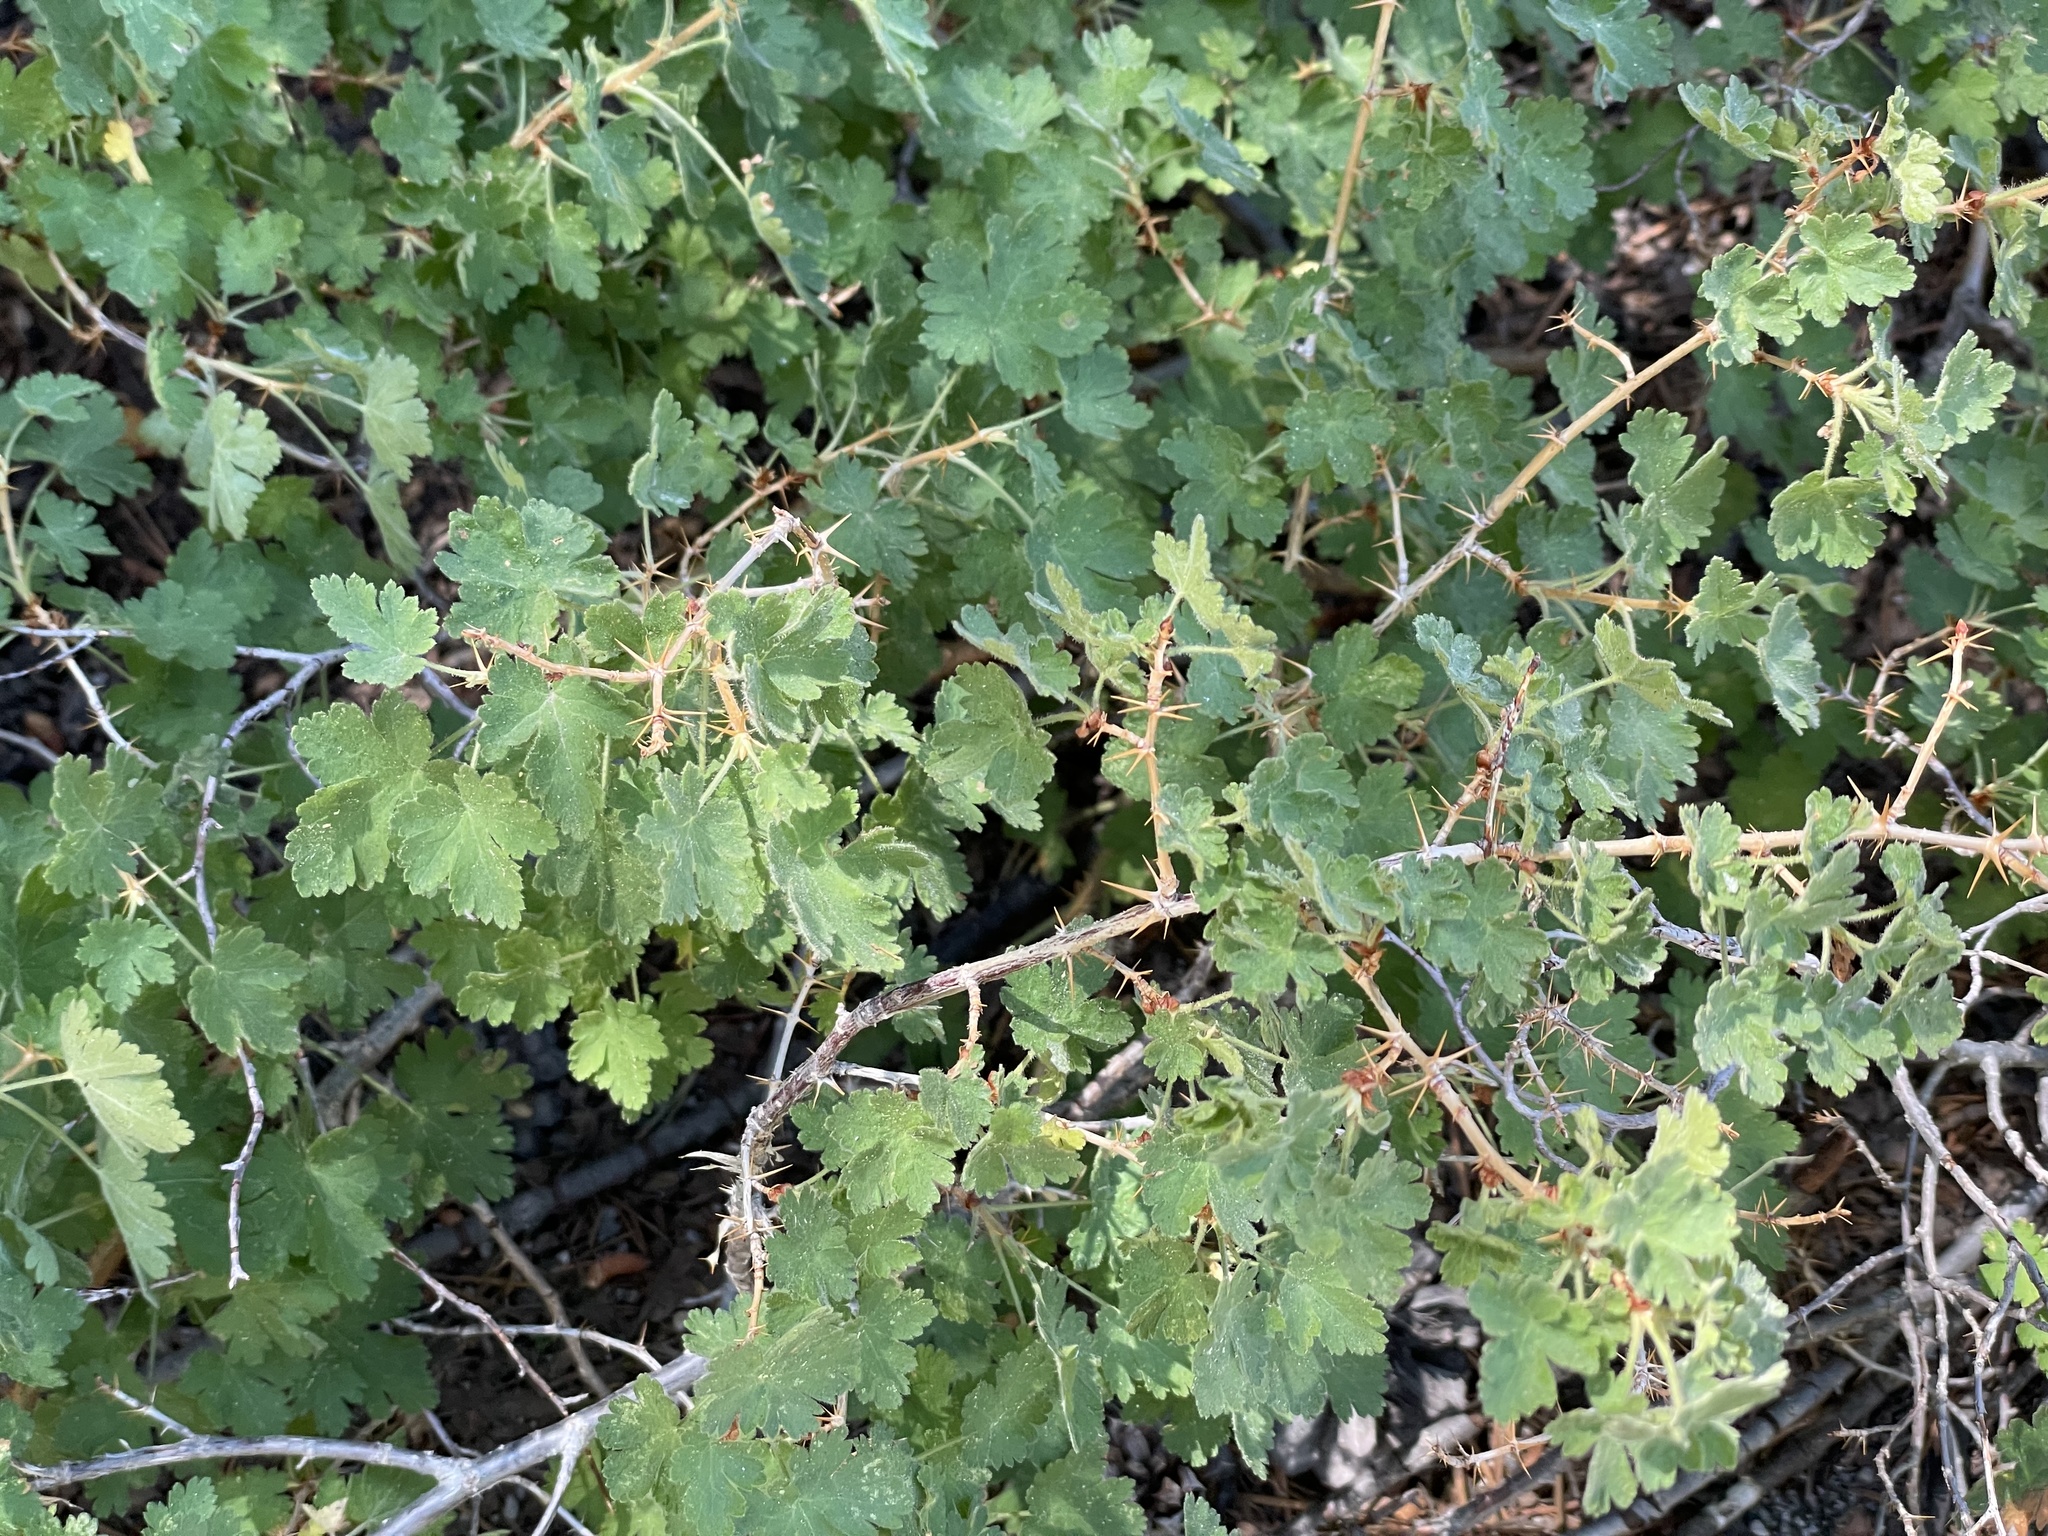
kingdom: Plantae
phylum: Tracheophyta
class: Magnoliopsida
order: Saxifragales
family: Grossulariaceae
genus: Ribes
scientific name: Ribes montigenum
